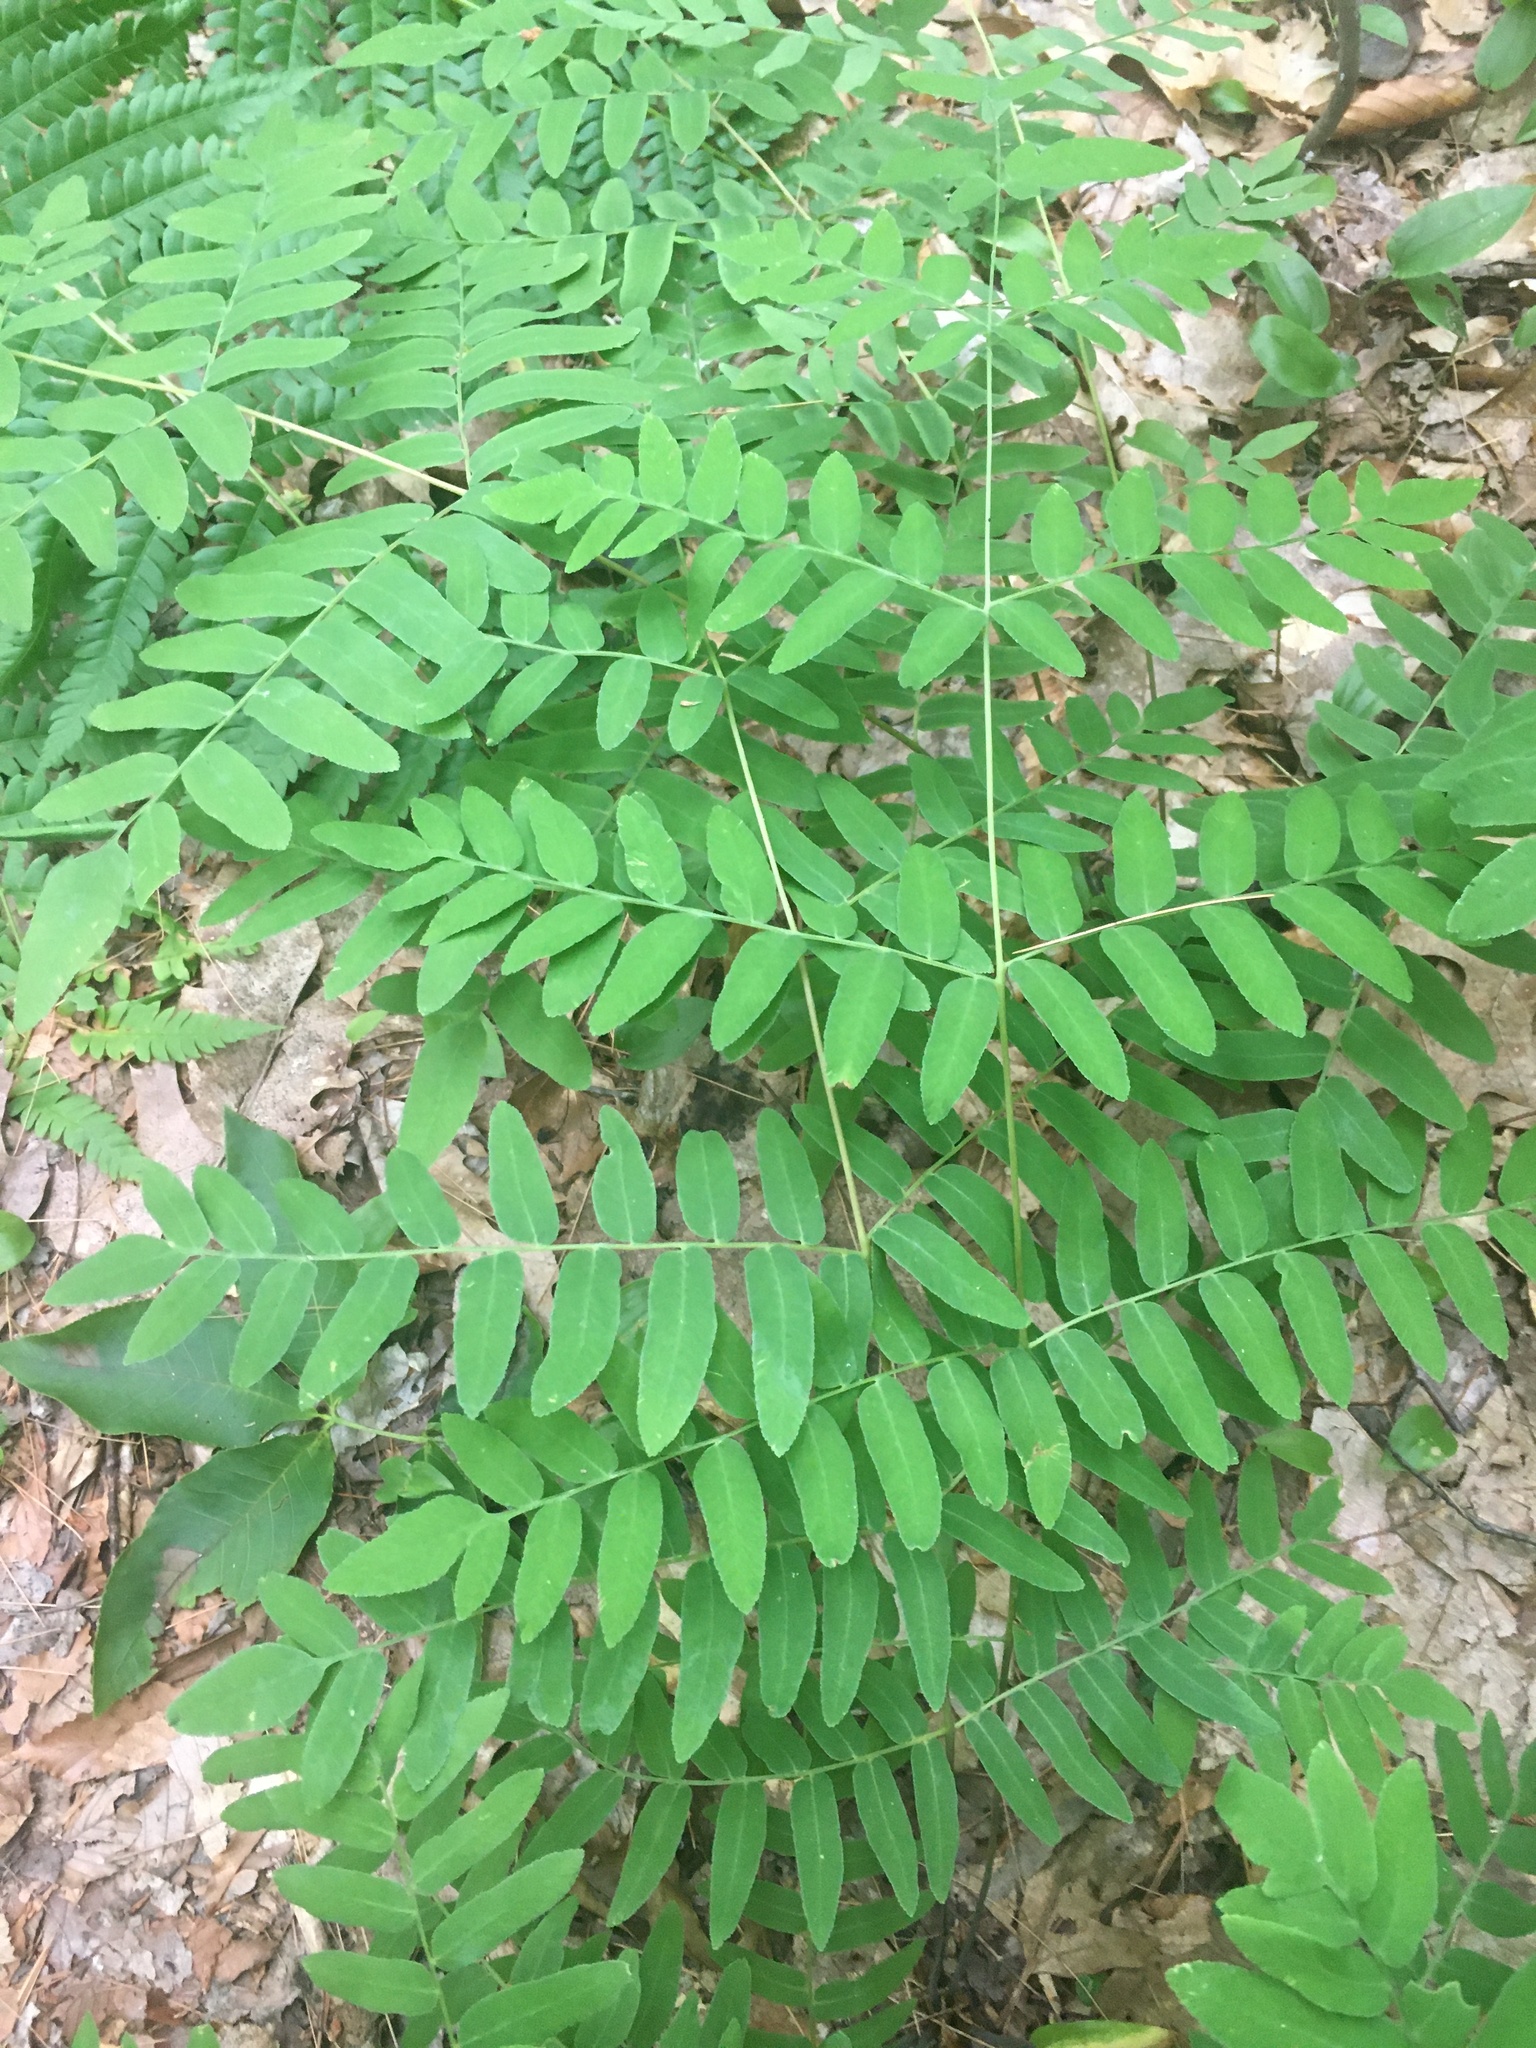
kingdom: Plantae
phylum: Tracheophyta
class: Polypodiopsida
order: Osmundales
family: Osmundaceae
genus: Osmunda
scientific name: Osmunda spectabilis
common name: American royal fern
